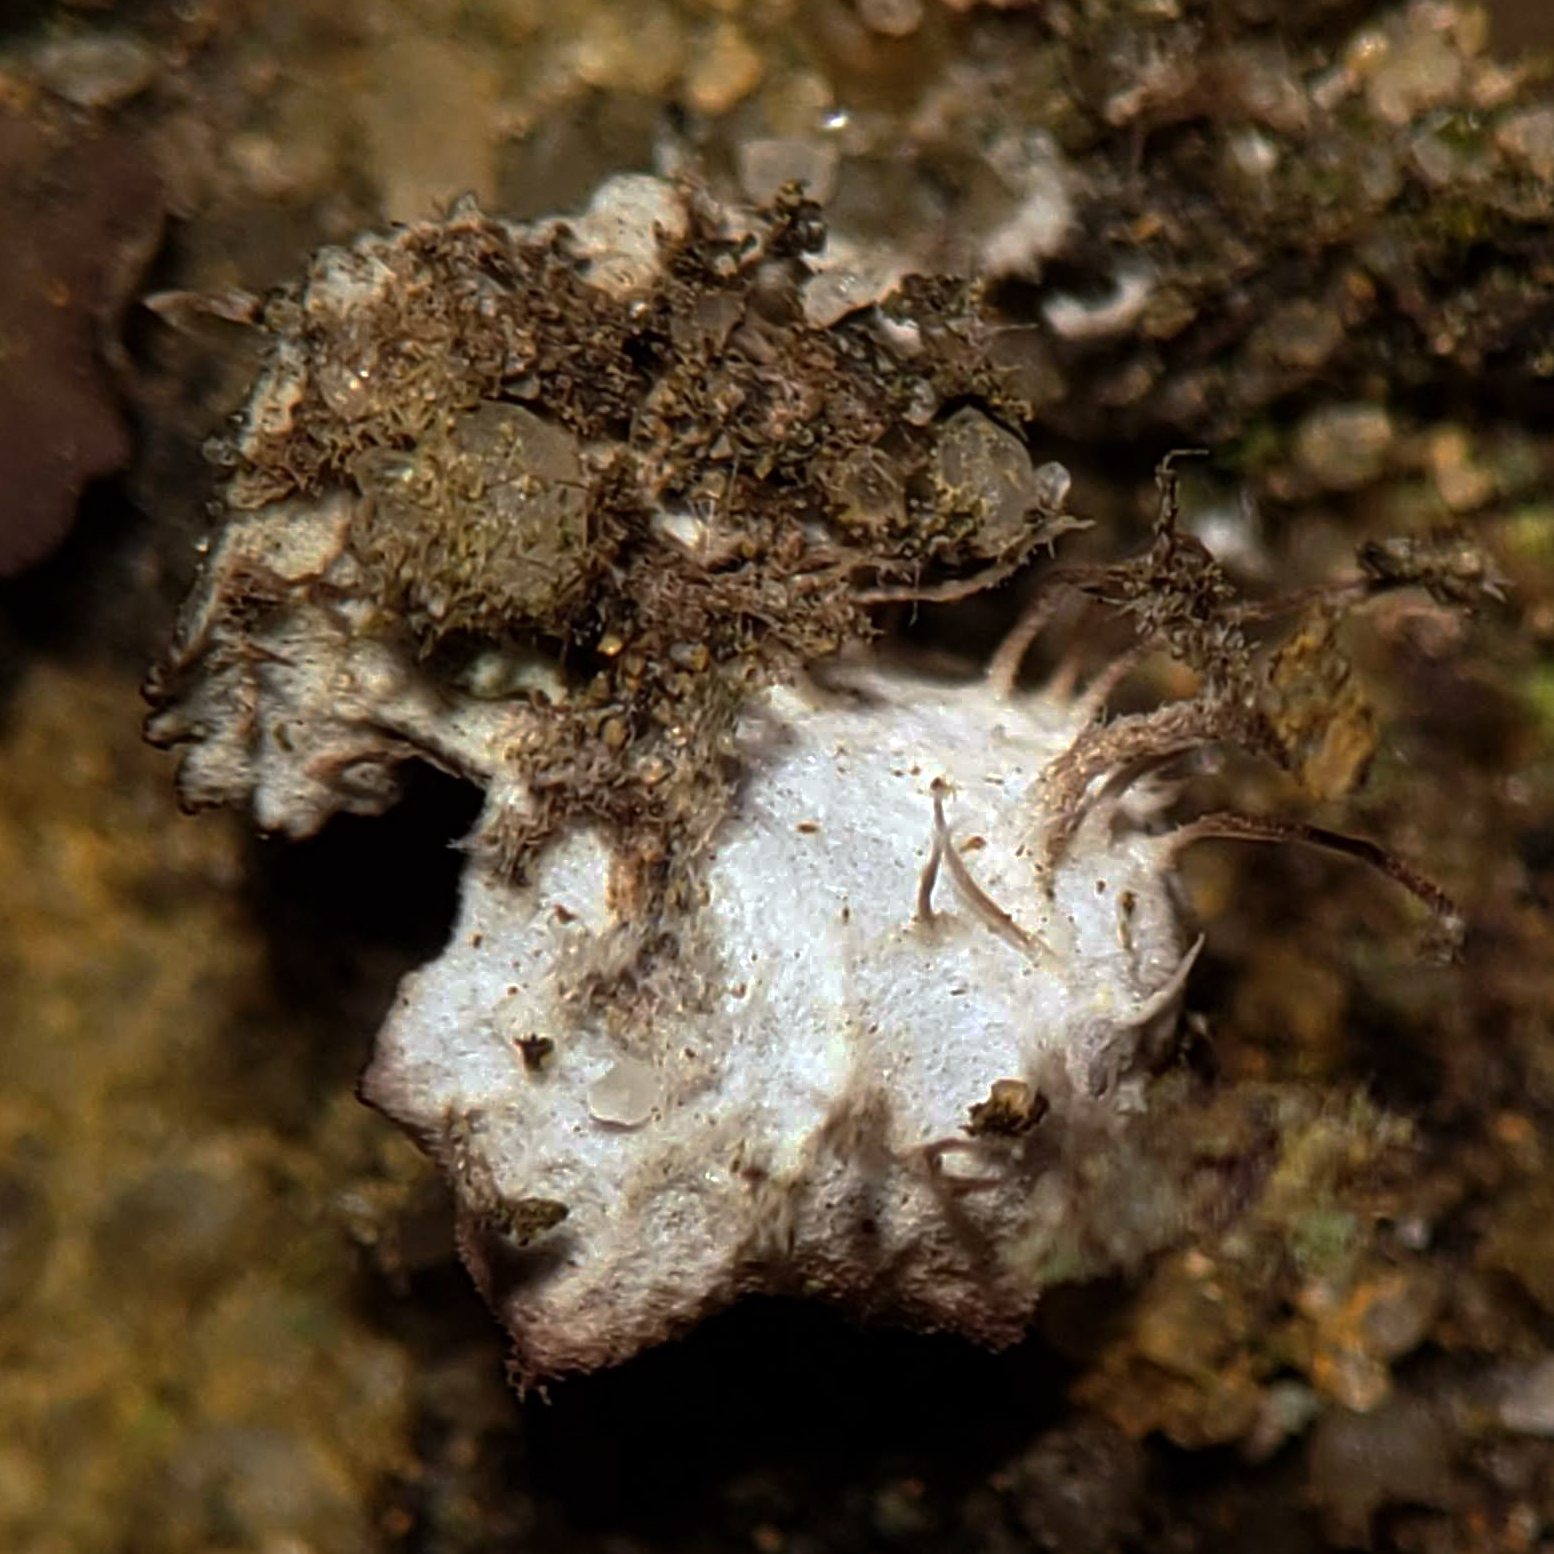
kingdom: Fungi
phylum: Ascomycota
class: Lecanoromycetes
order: Peltigerales
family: Peltigeraceae
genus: Peltigera
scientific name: Peltigera lepidophora
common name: Ear-lobed dog-lichen
